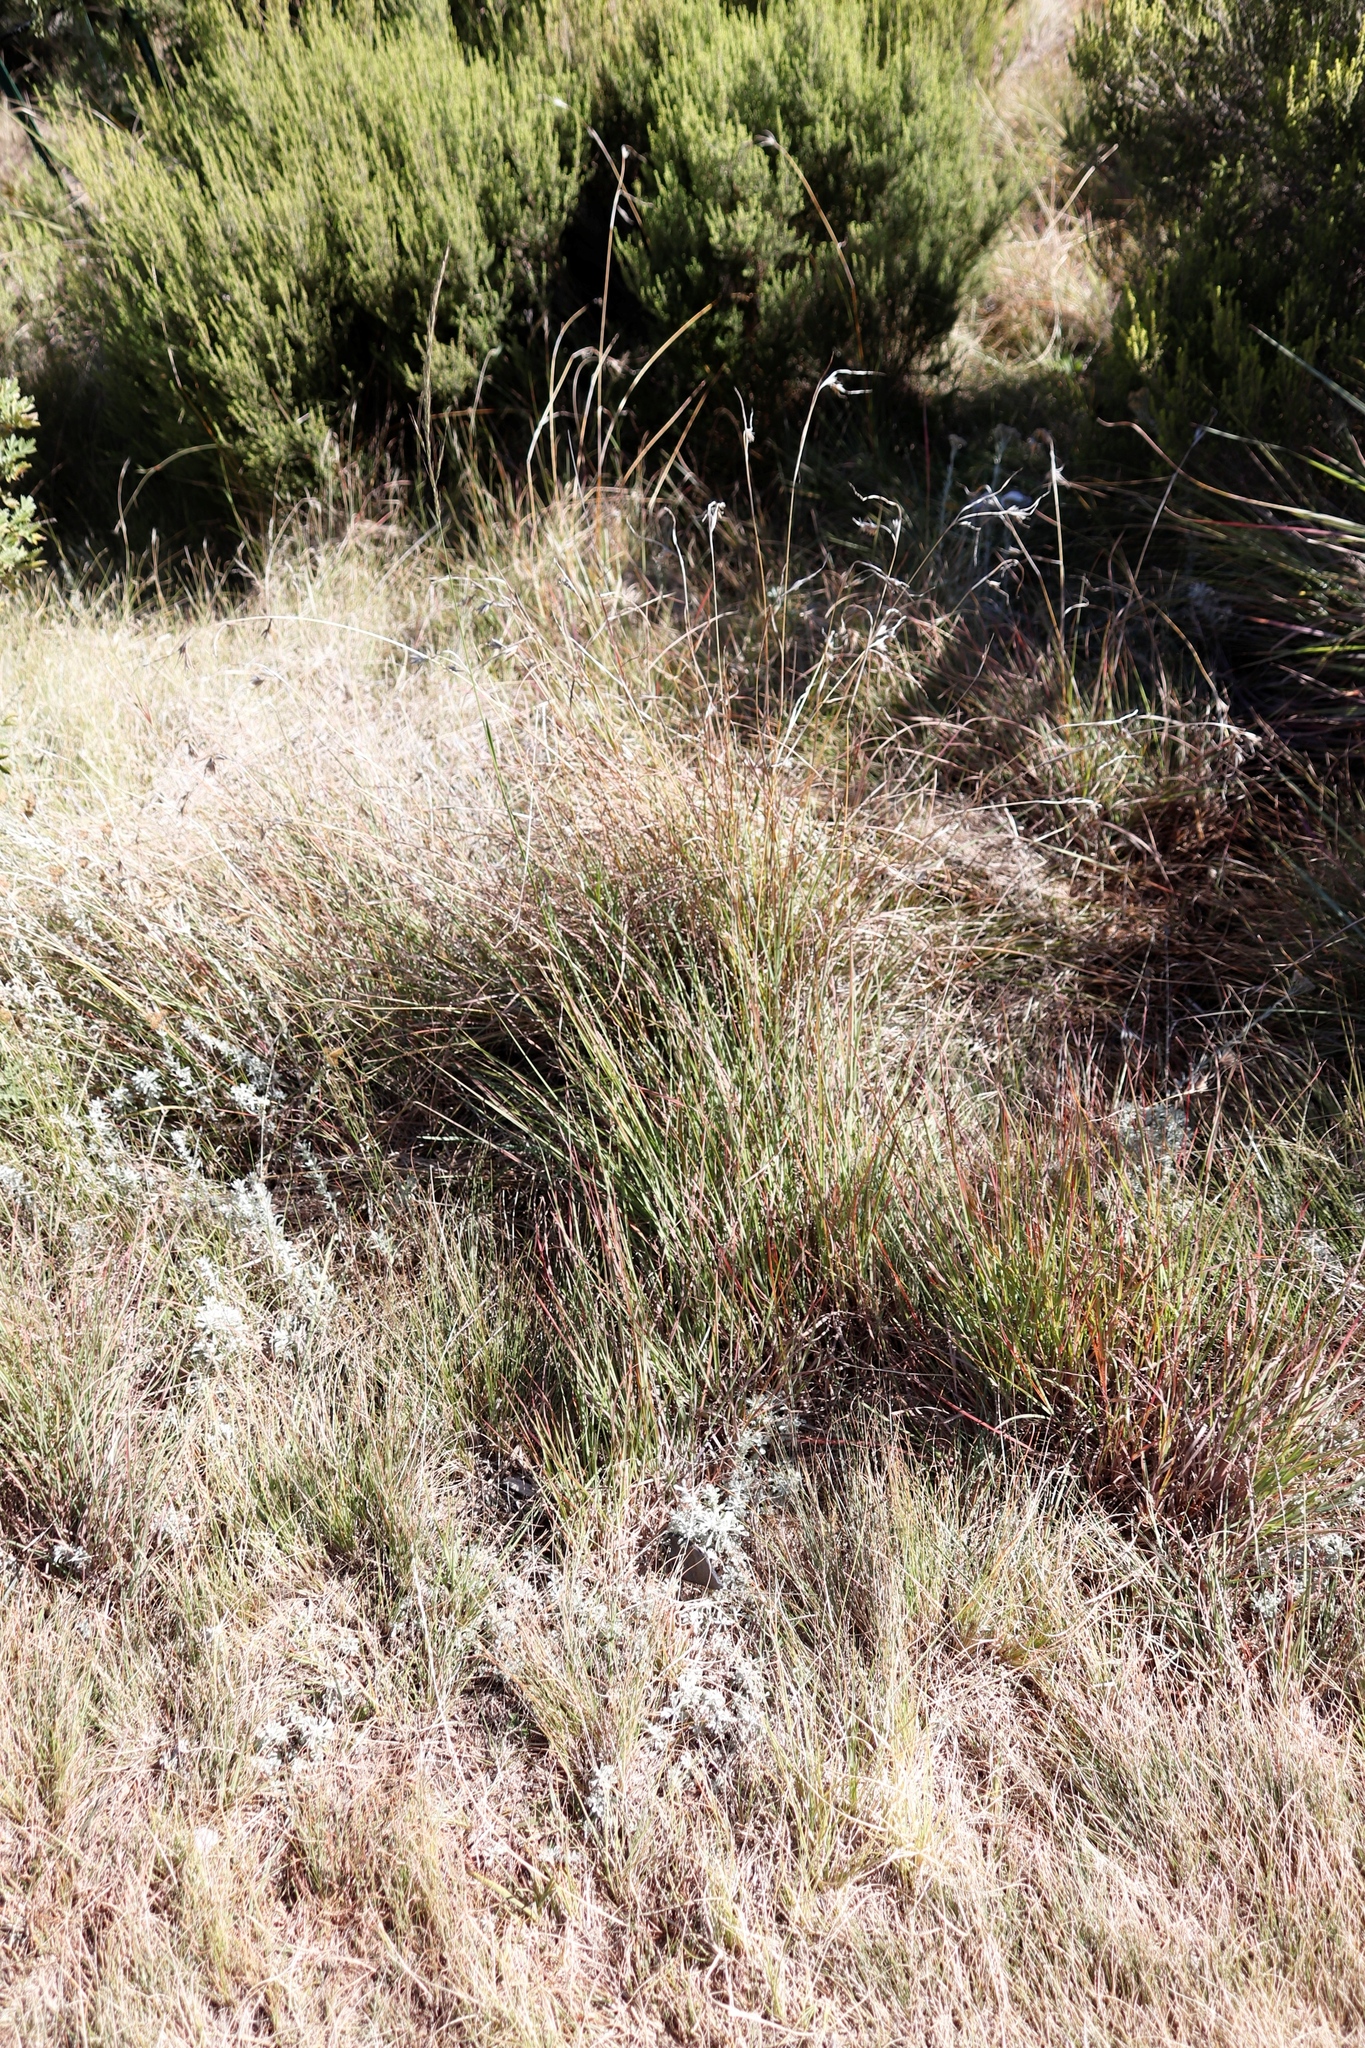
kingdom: Plantae
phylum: Tracheophyta
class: Liliopsida
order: Poales
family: Poaceae
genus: Themeda
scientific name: Themeda triandra
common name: Kangaroo grass
